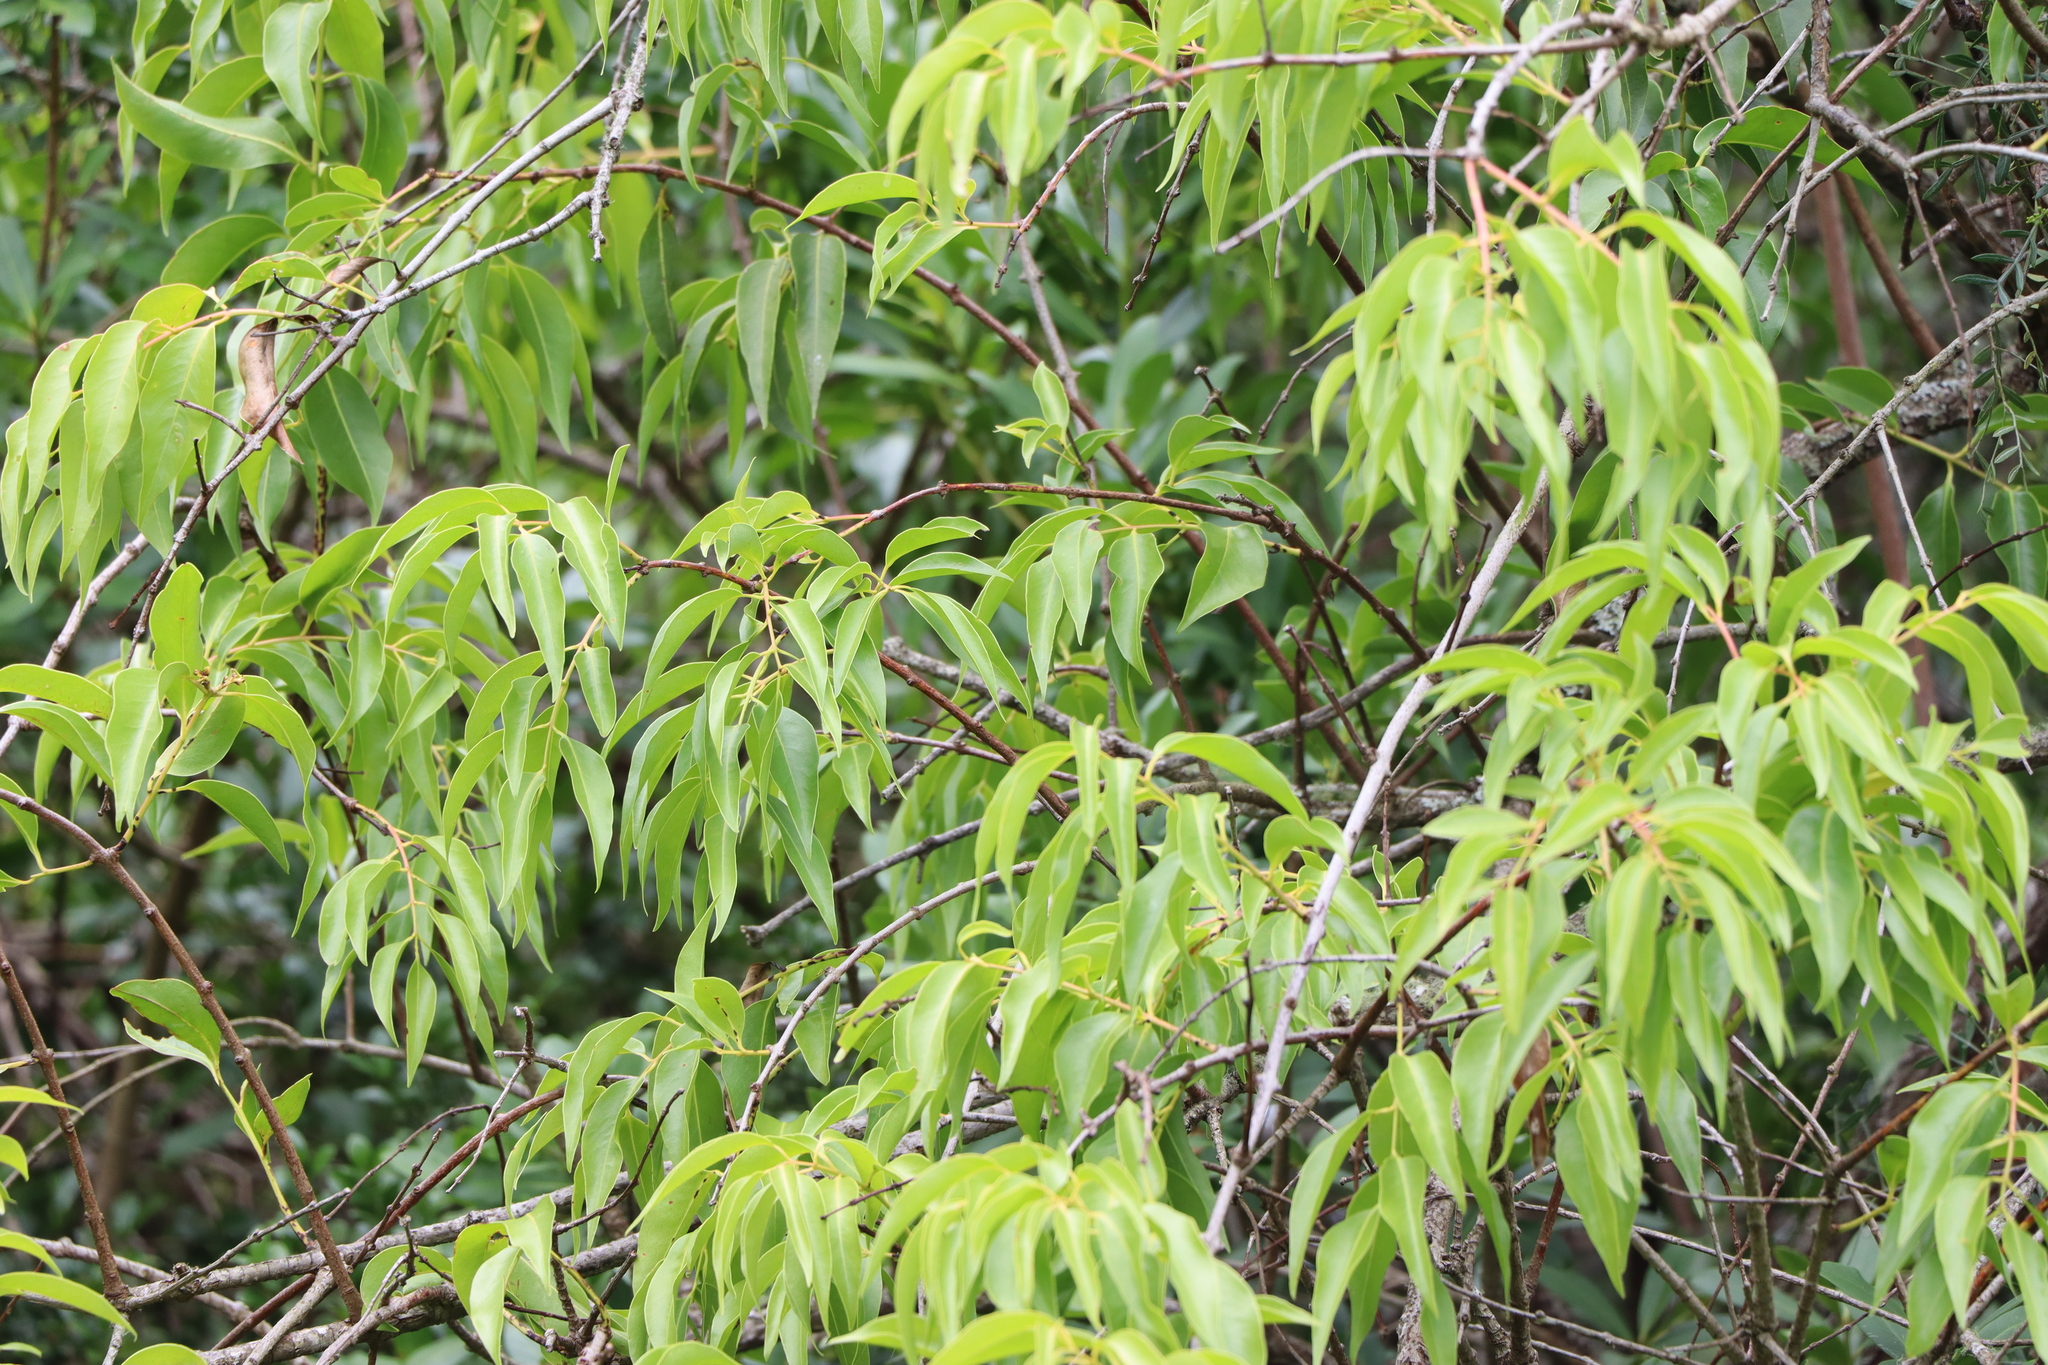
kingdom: Plantae
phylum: Tracheophyta
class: Magnoliopsida
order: Santalales
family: Loranthaceae
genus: Tripodanthus
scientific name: Tripodanthus acutifolius
